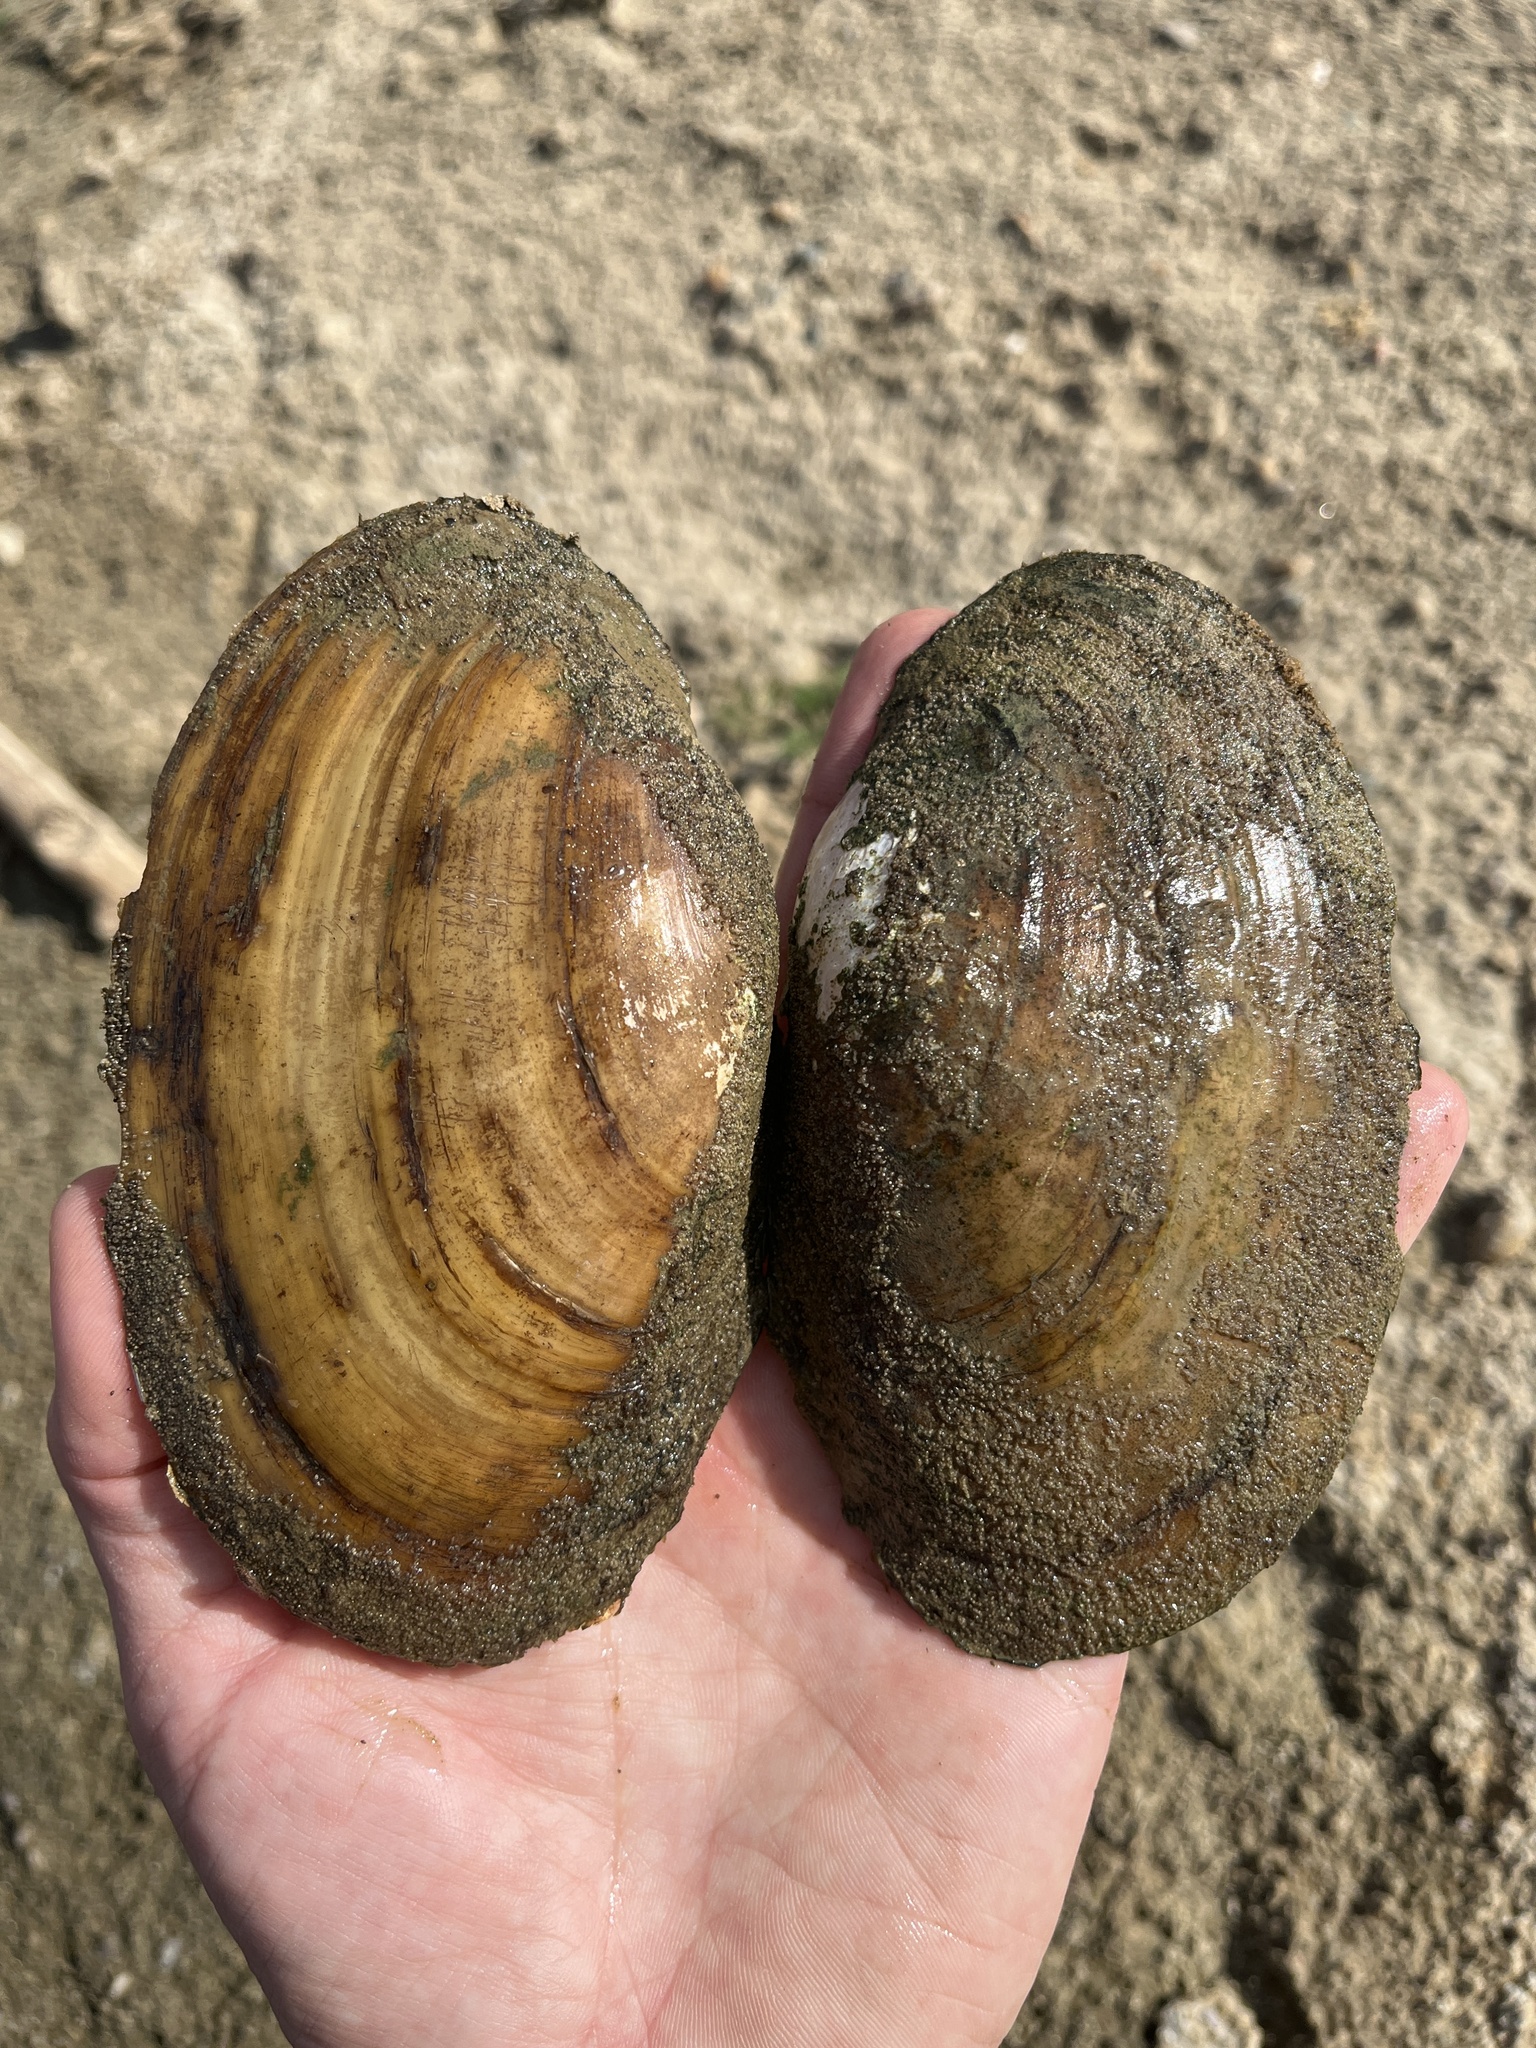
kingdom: Animalia
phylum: Mollusca
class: Bivalvia
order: Unionida
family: Unionidae
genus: Potamilus
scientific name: Potamilus fragilis
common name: Fragile papershell
